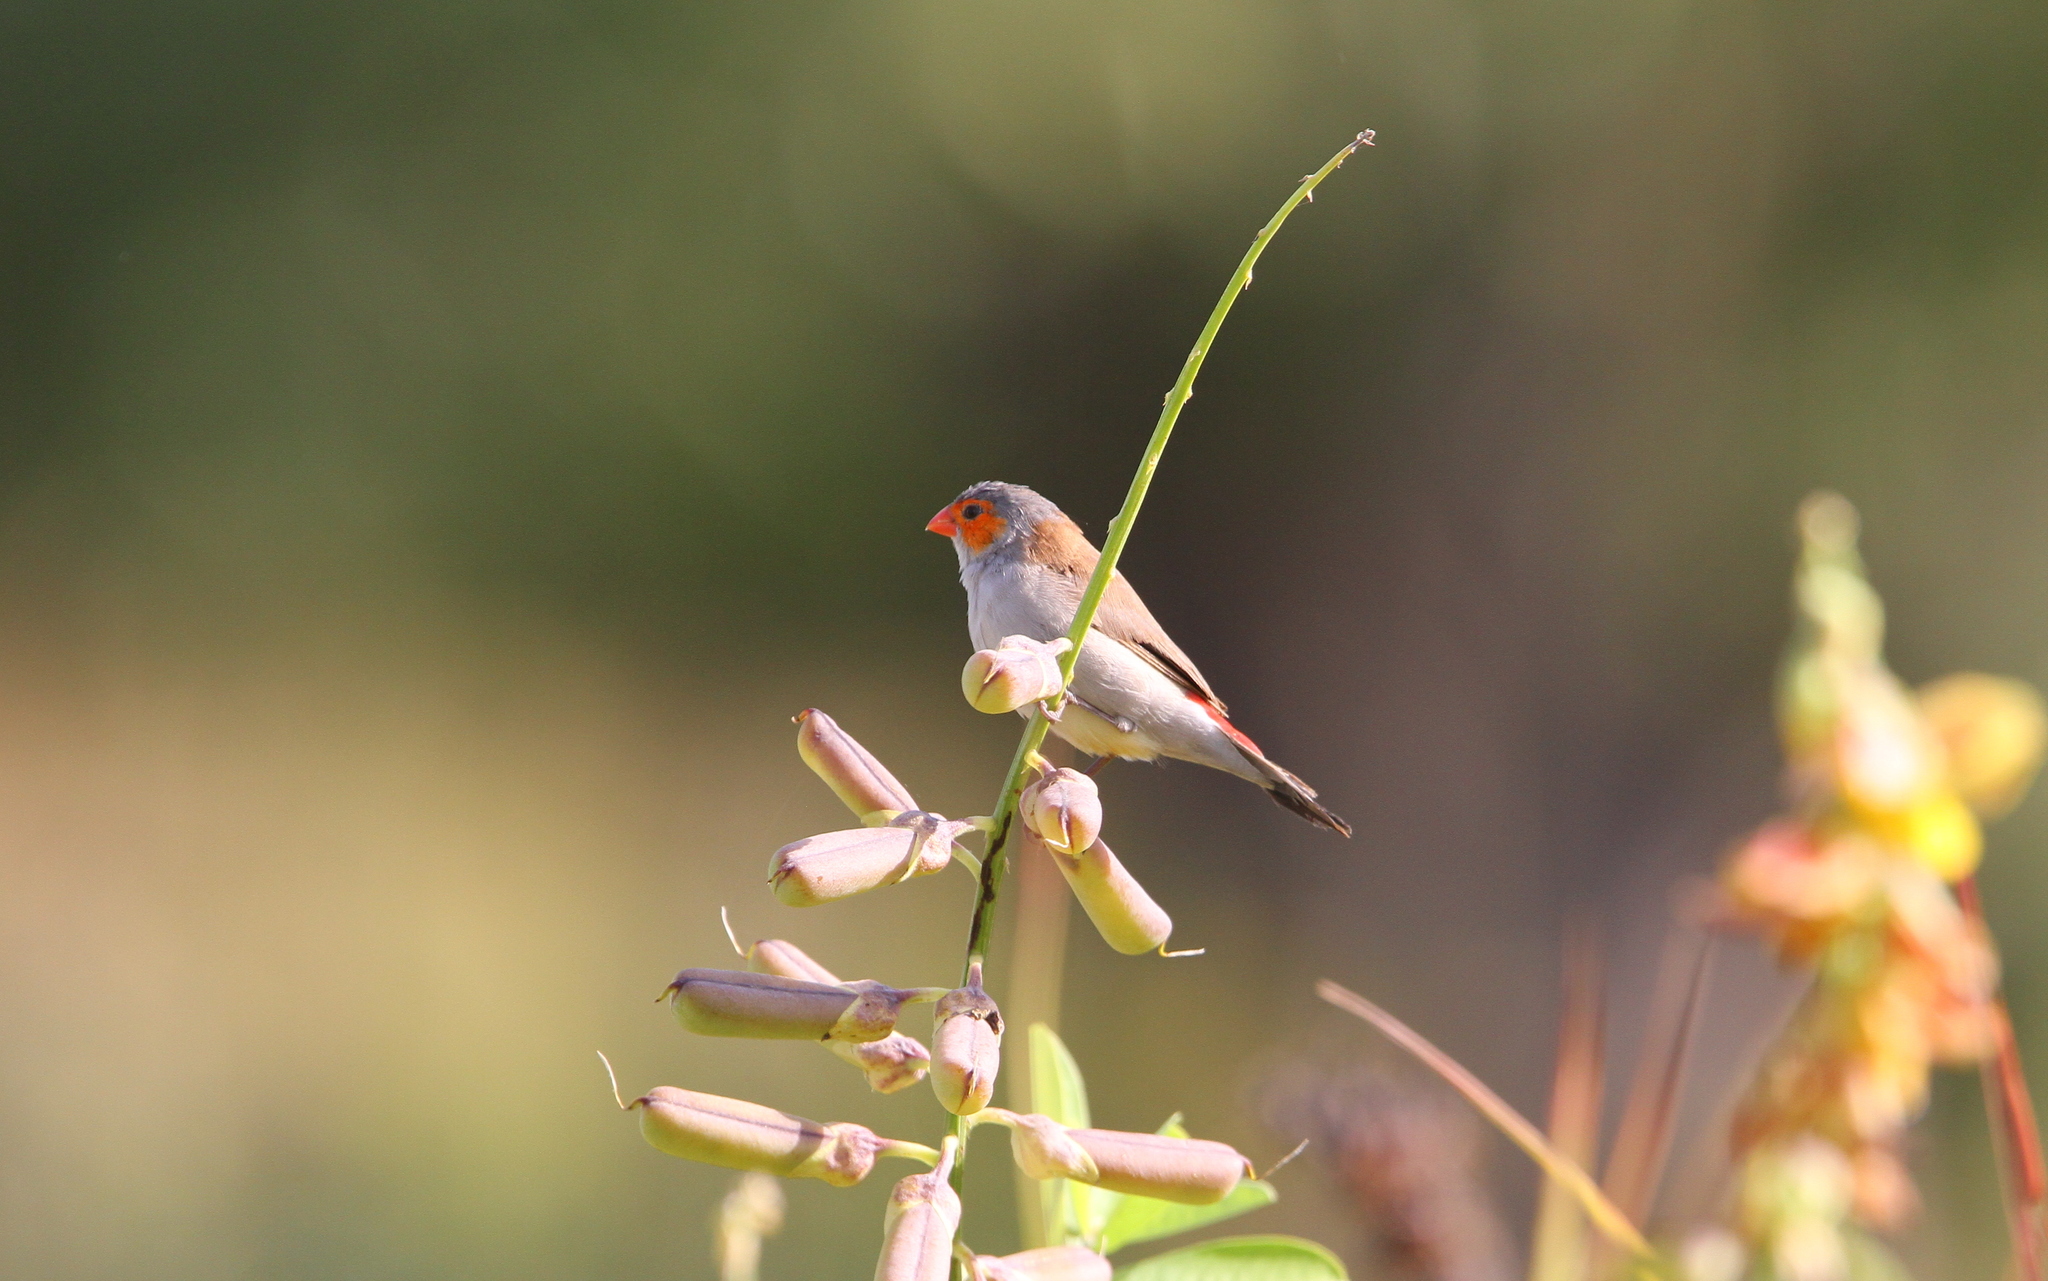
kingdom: Animalia
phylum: Chordata
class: Aves
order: Passeriformes
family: Estrildidae
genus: Estrilda
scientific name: Estrilda melpoda
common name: Orange-cheeked waxbill
